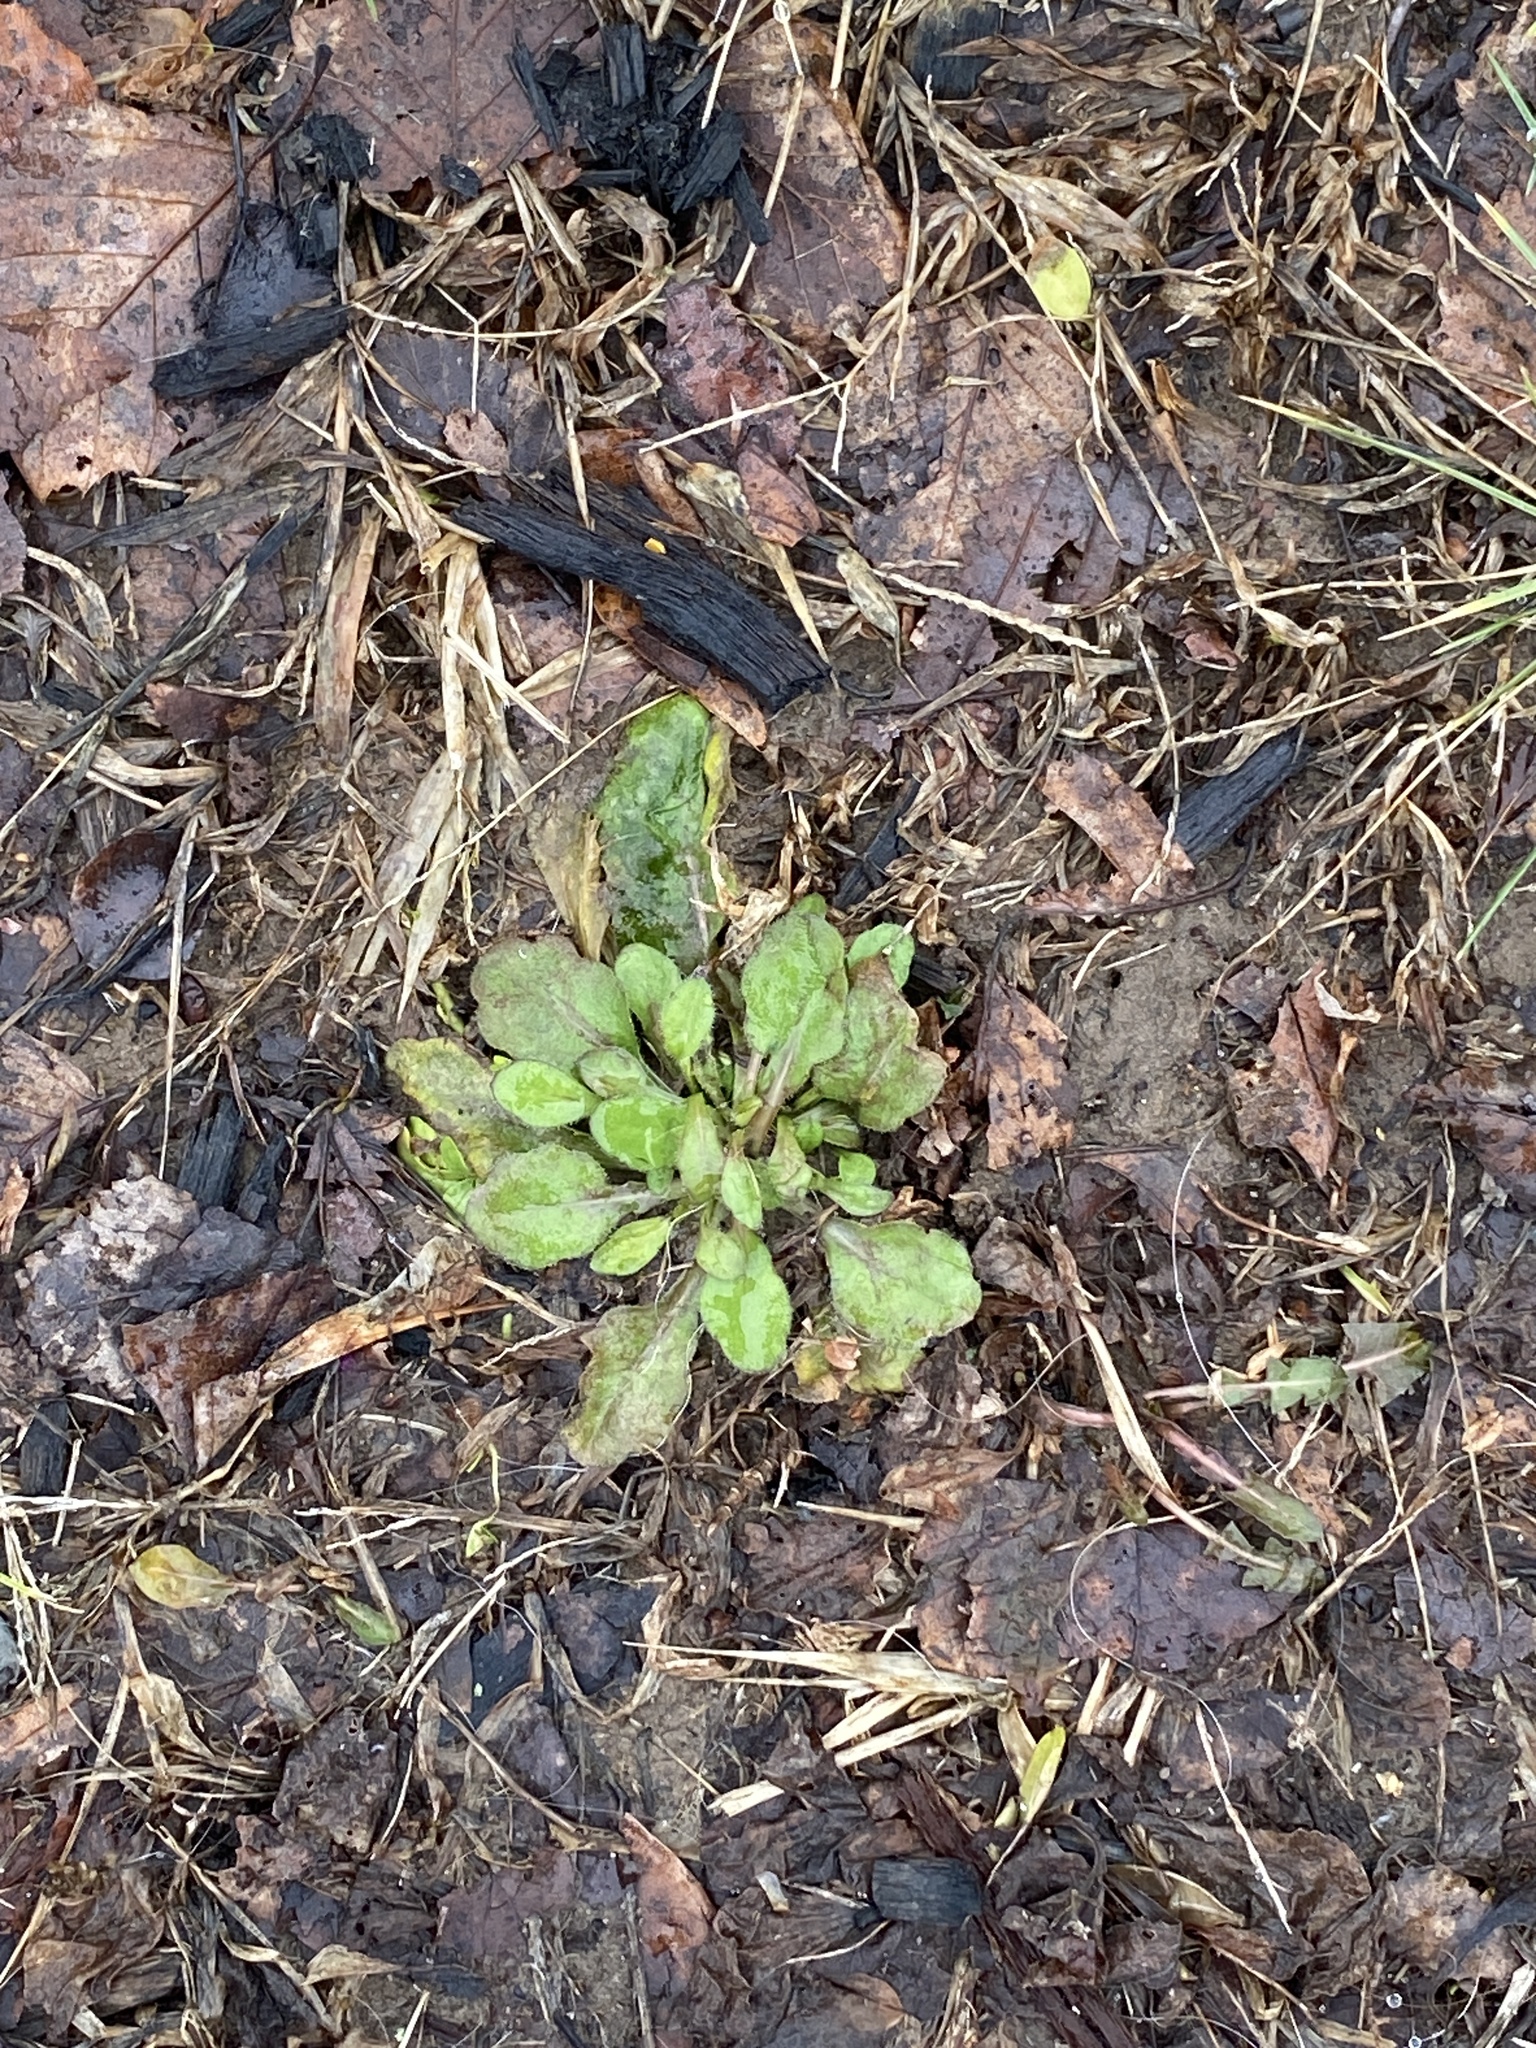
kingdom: Plantae
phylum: Tracheophyta
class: Magnoliopsida
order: Asterales
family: Asteraceae
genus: Erigeron
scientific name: Erigeron canadensis
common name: Canadian fleabane
